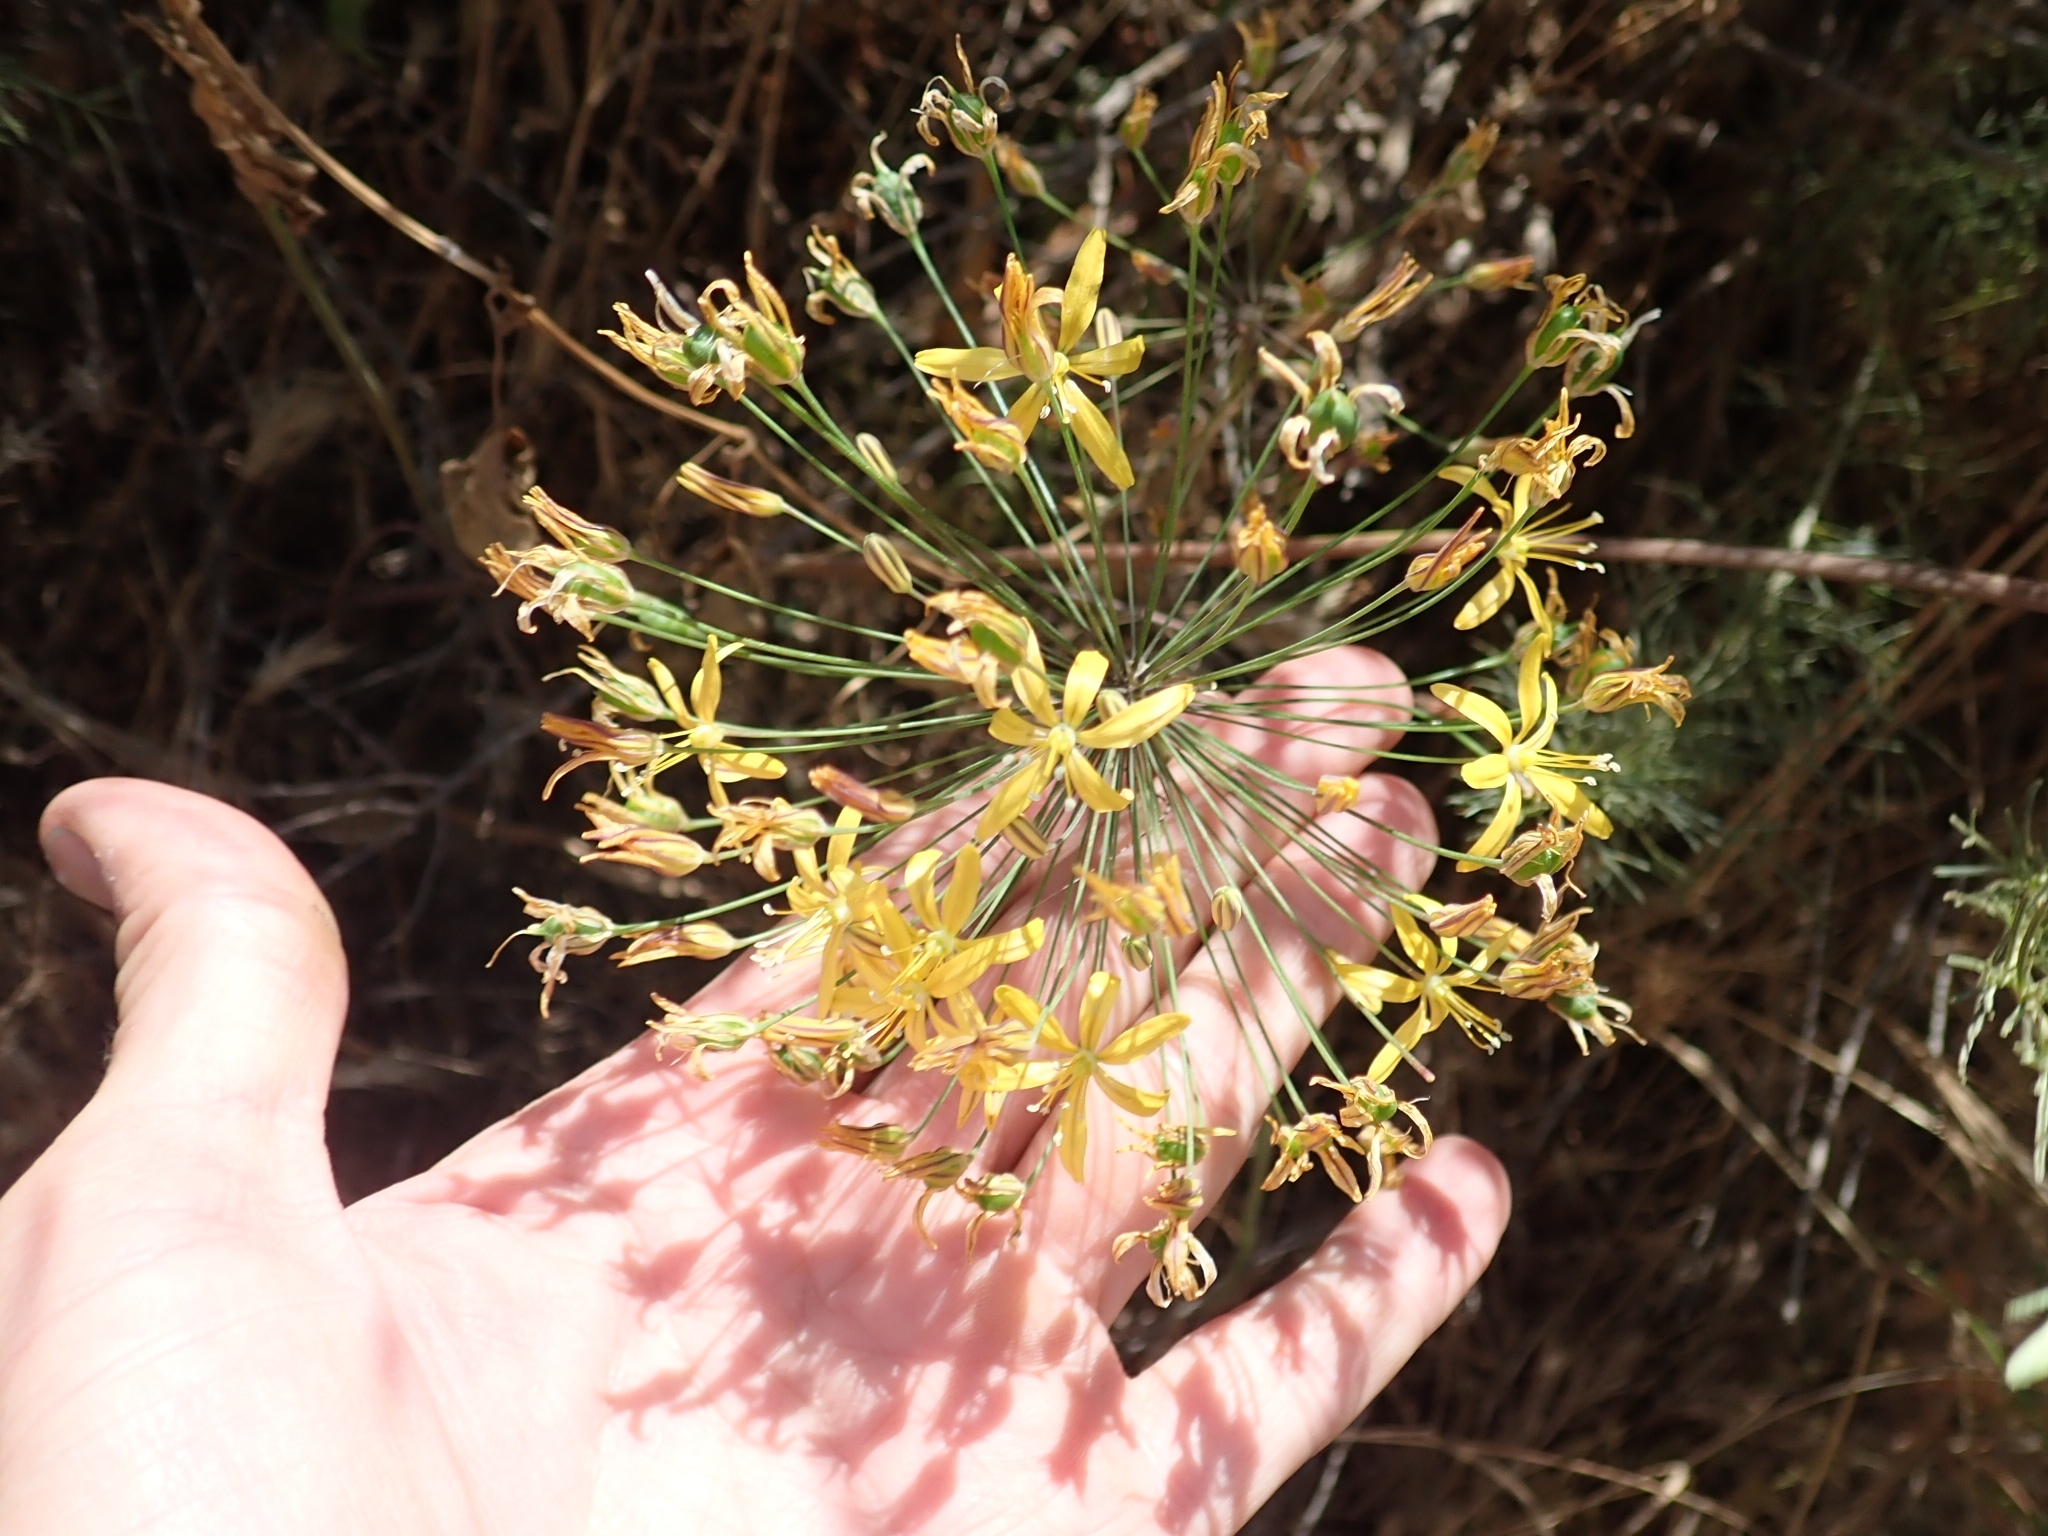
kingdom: Plantae
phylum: Tracheophyta
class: Liliopsida
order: Asparagales
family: Asparagaceae
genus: Bloomeria
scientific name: Bloomeria crocea
